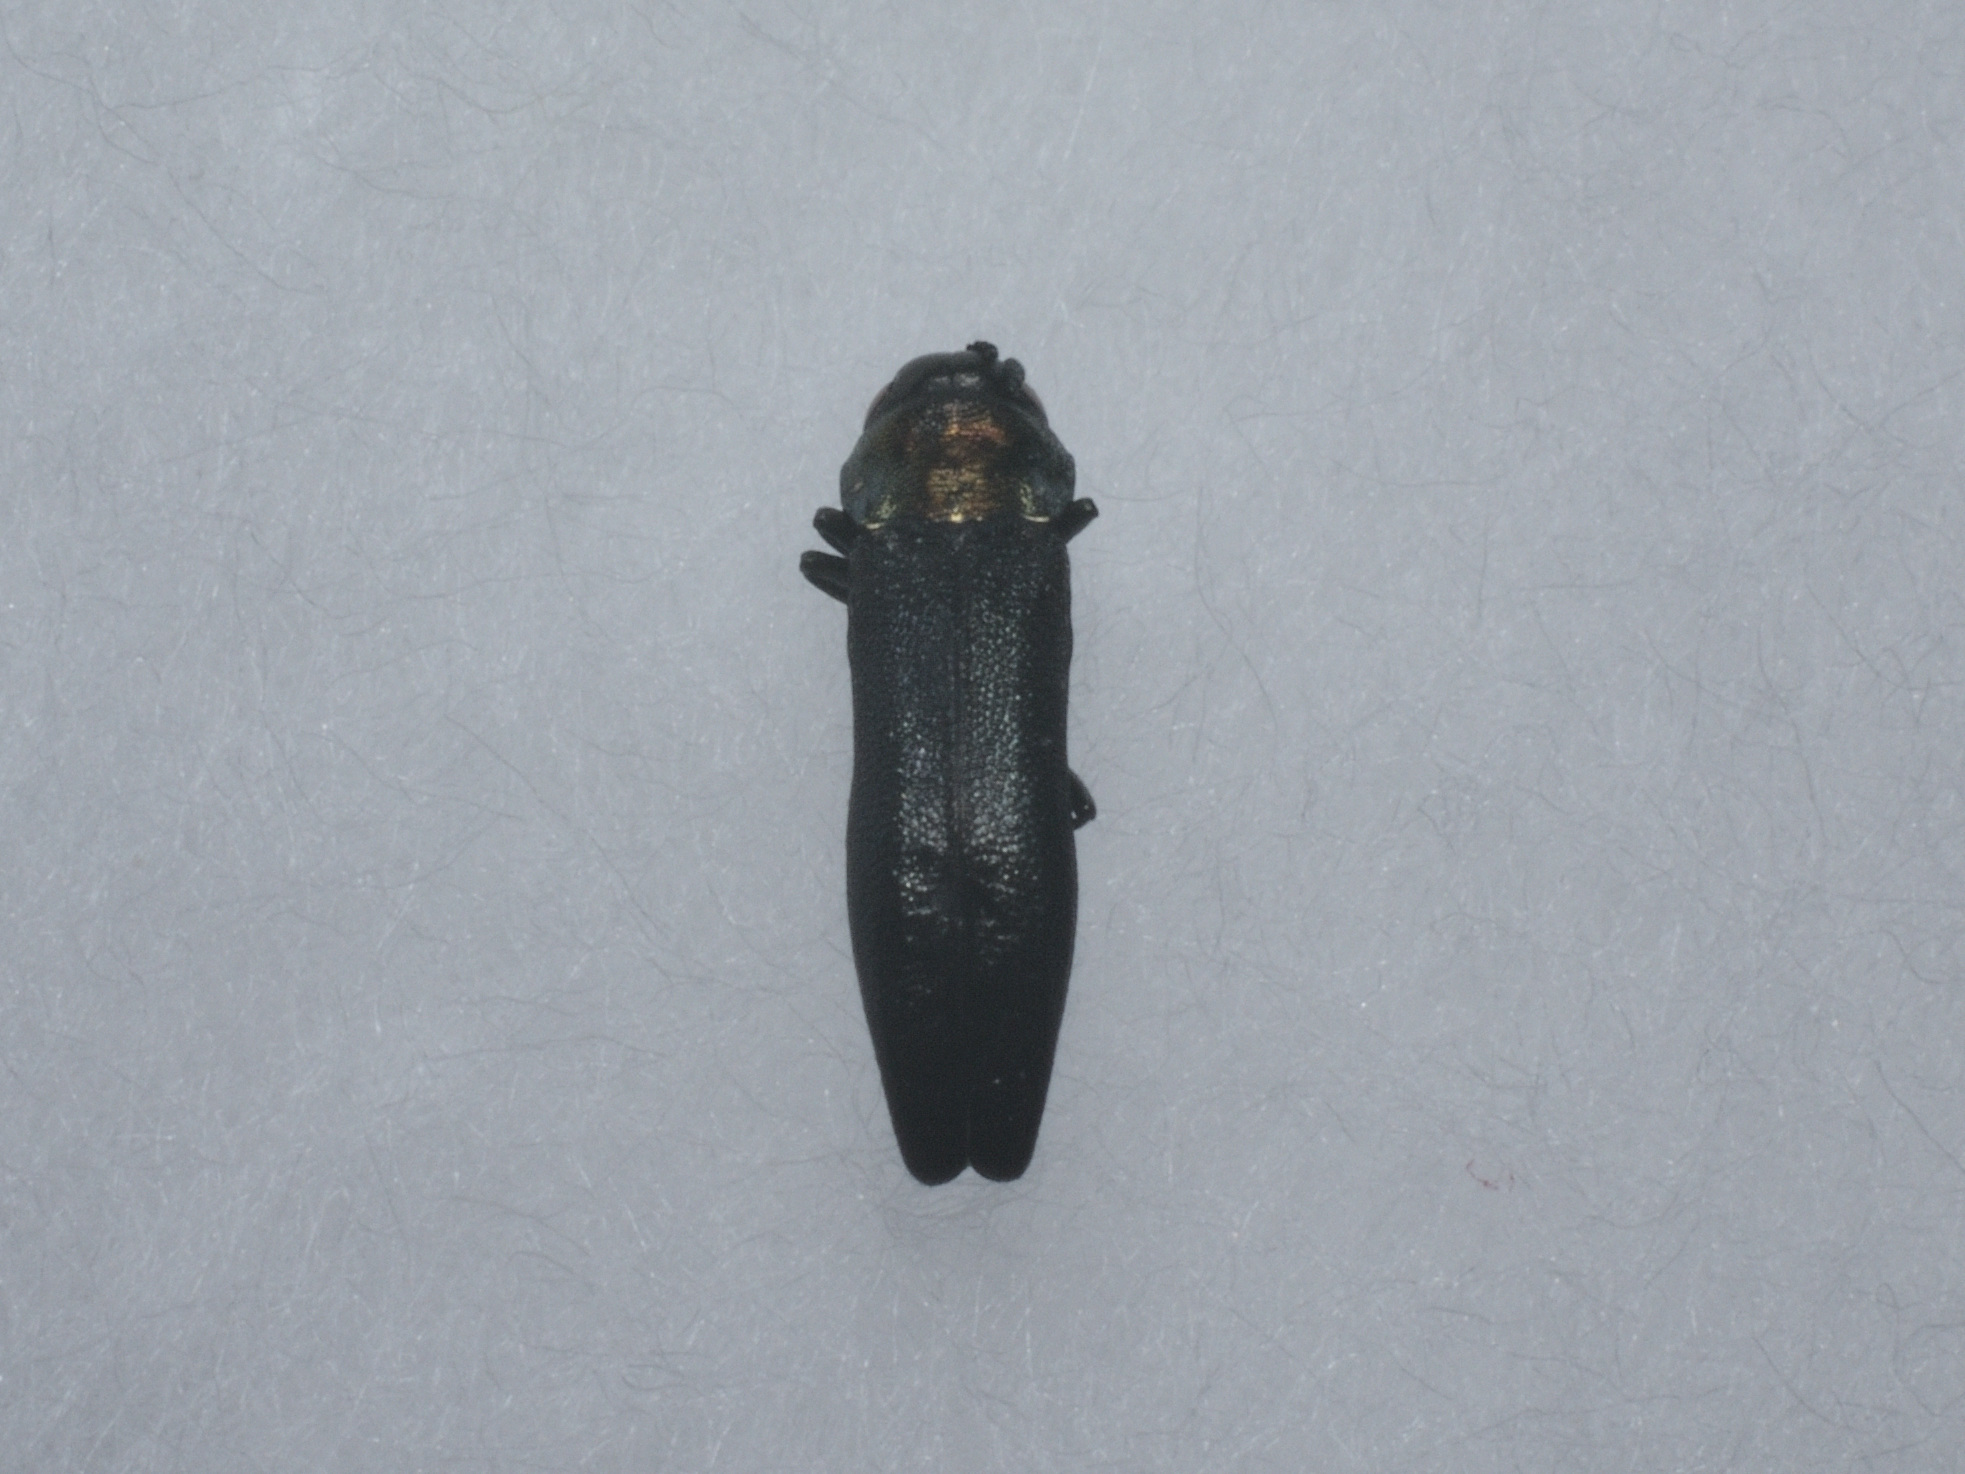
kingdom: Animalia
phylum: Arthropoda
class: Insecta
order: Coleoptera
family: Buprestidae
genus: Agrilus
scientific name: Agrilus pratensis
